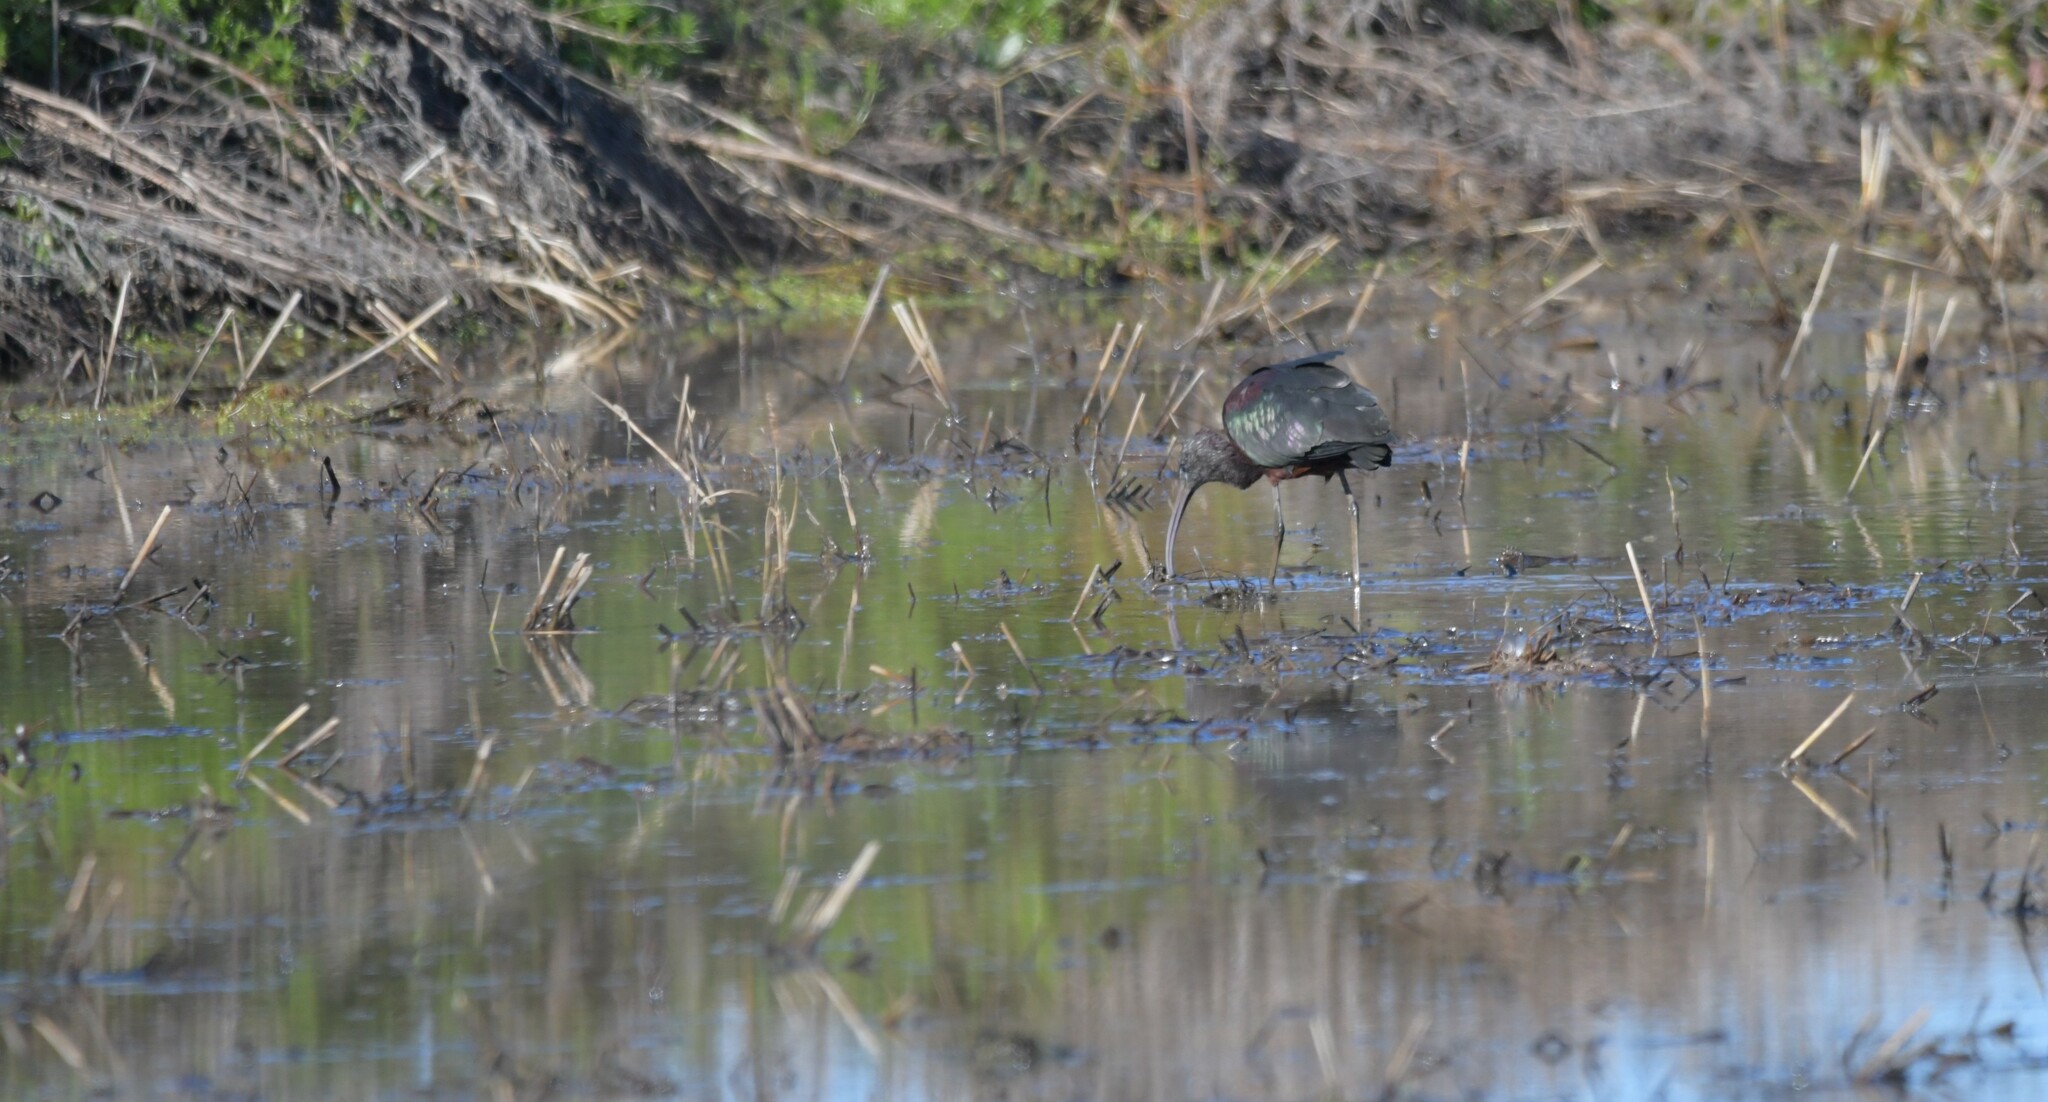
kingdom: Animalia
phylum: Chordata
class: Aves
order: Pelecaniformes
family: Threskiornithidae
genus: Plegadis
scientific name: Plegadis falcinellus
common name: Glossy ibis
